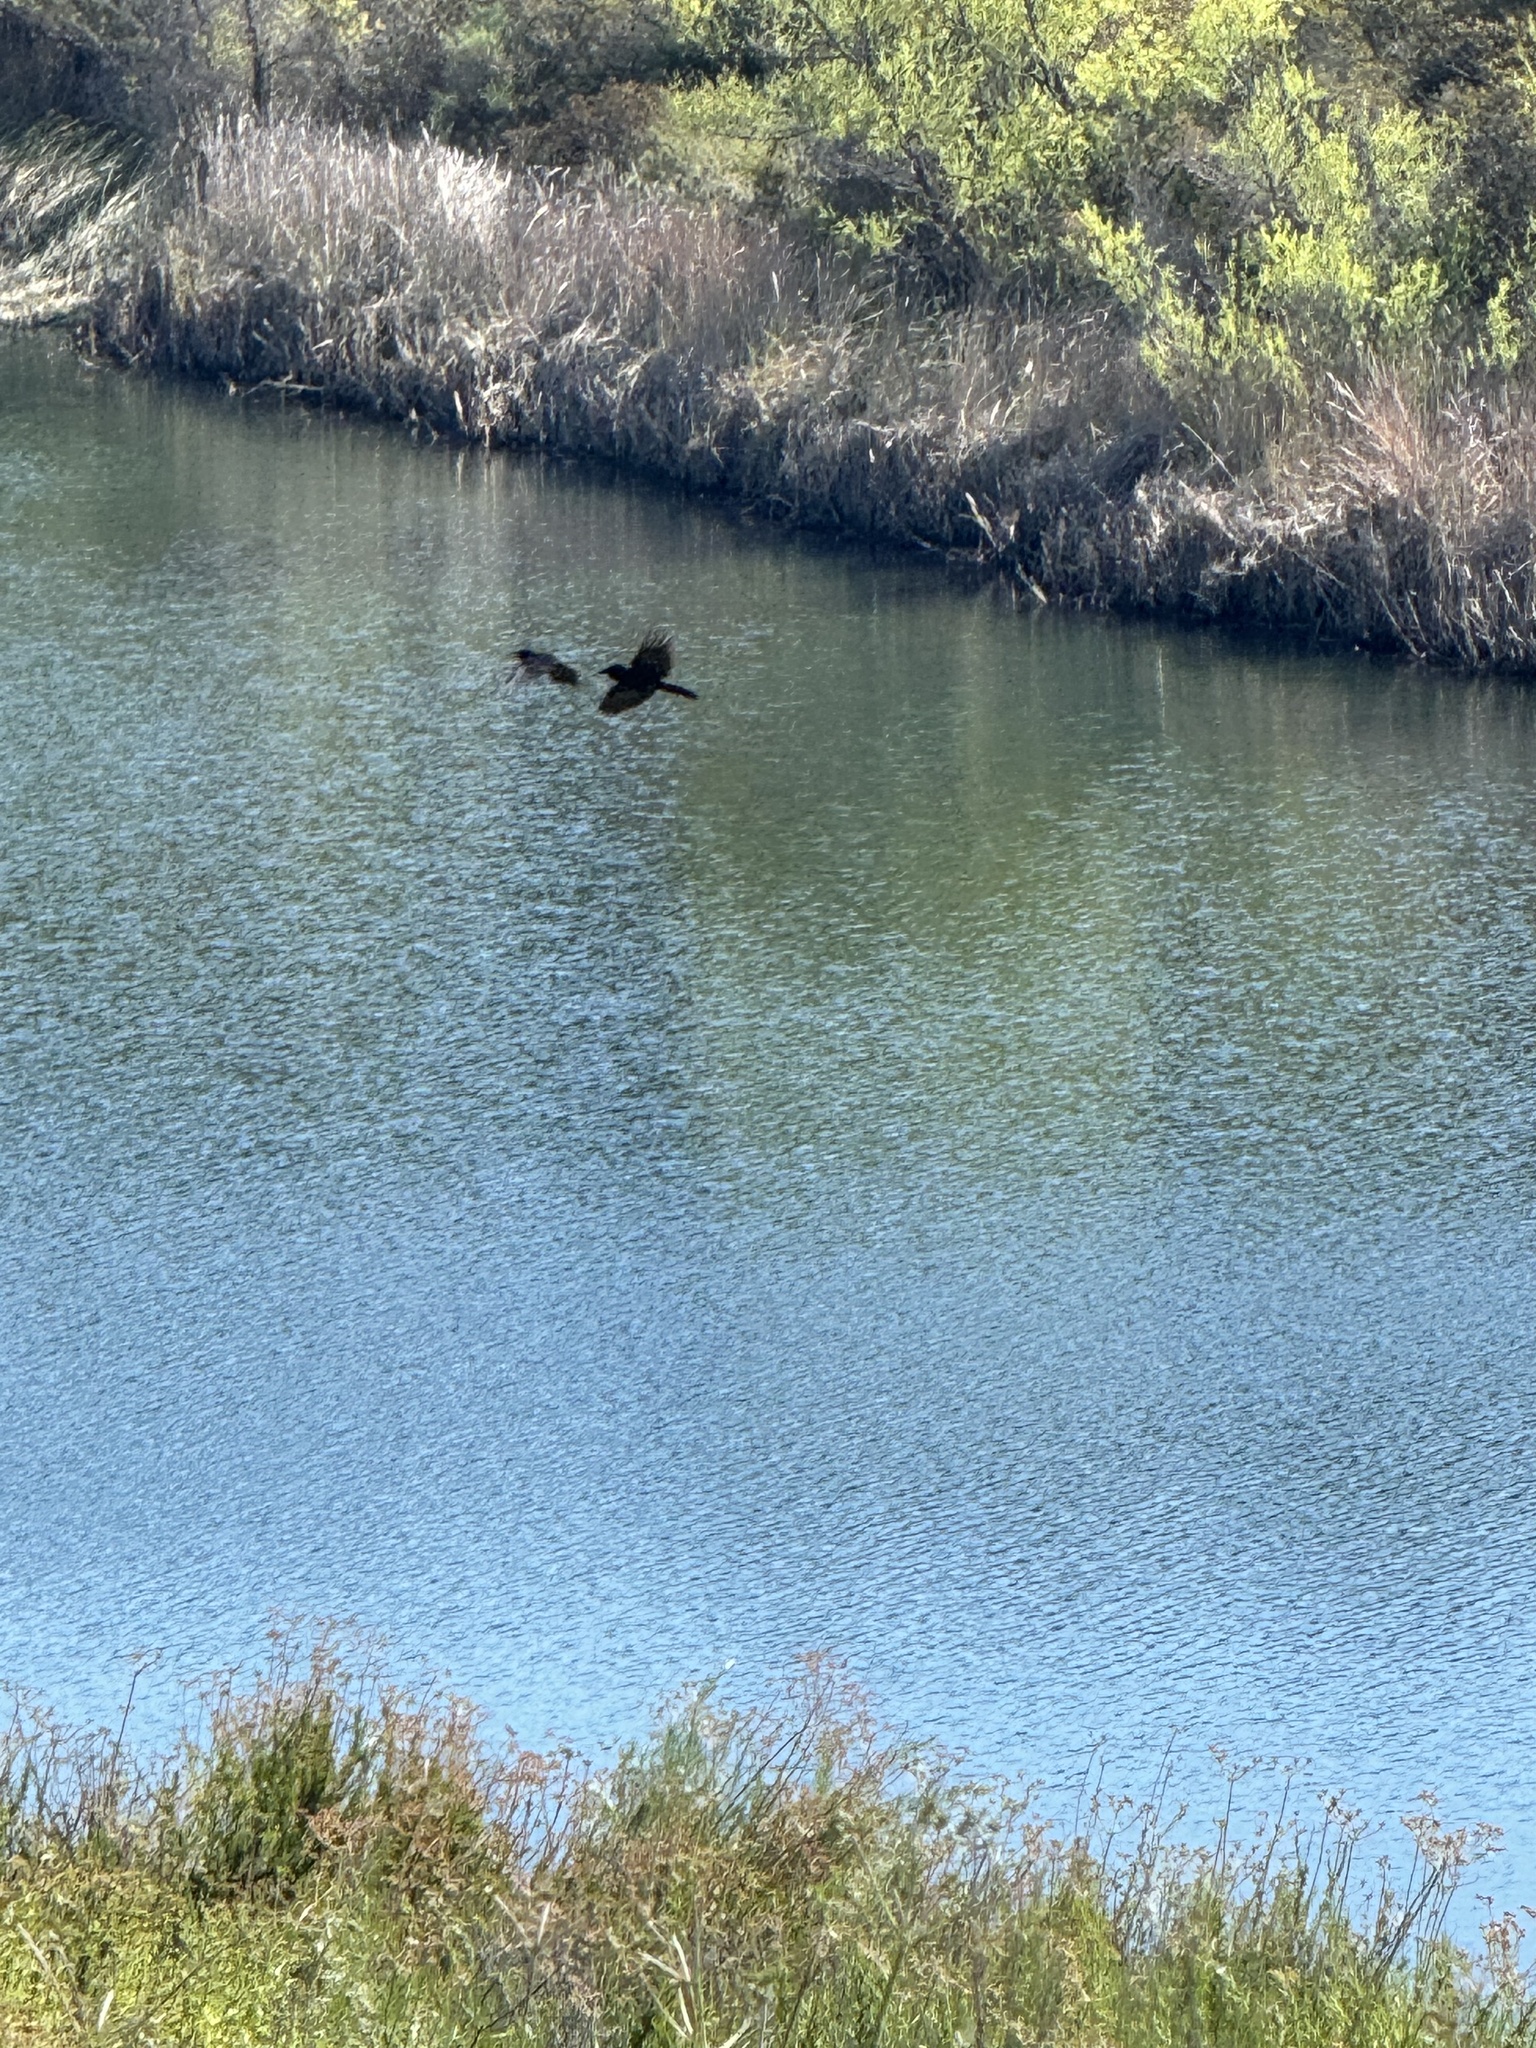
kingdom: Animalia
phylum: Chordata
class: Aves
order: Passeriformes
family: Corvidae
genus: Corvus
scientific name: Corvus brachyrhynchos
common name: American crow
